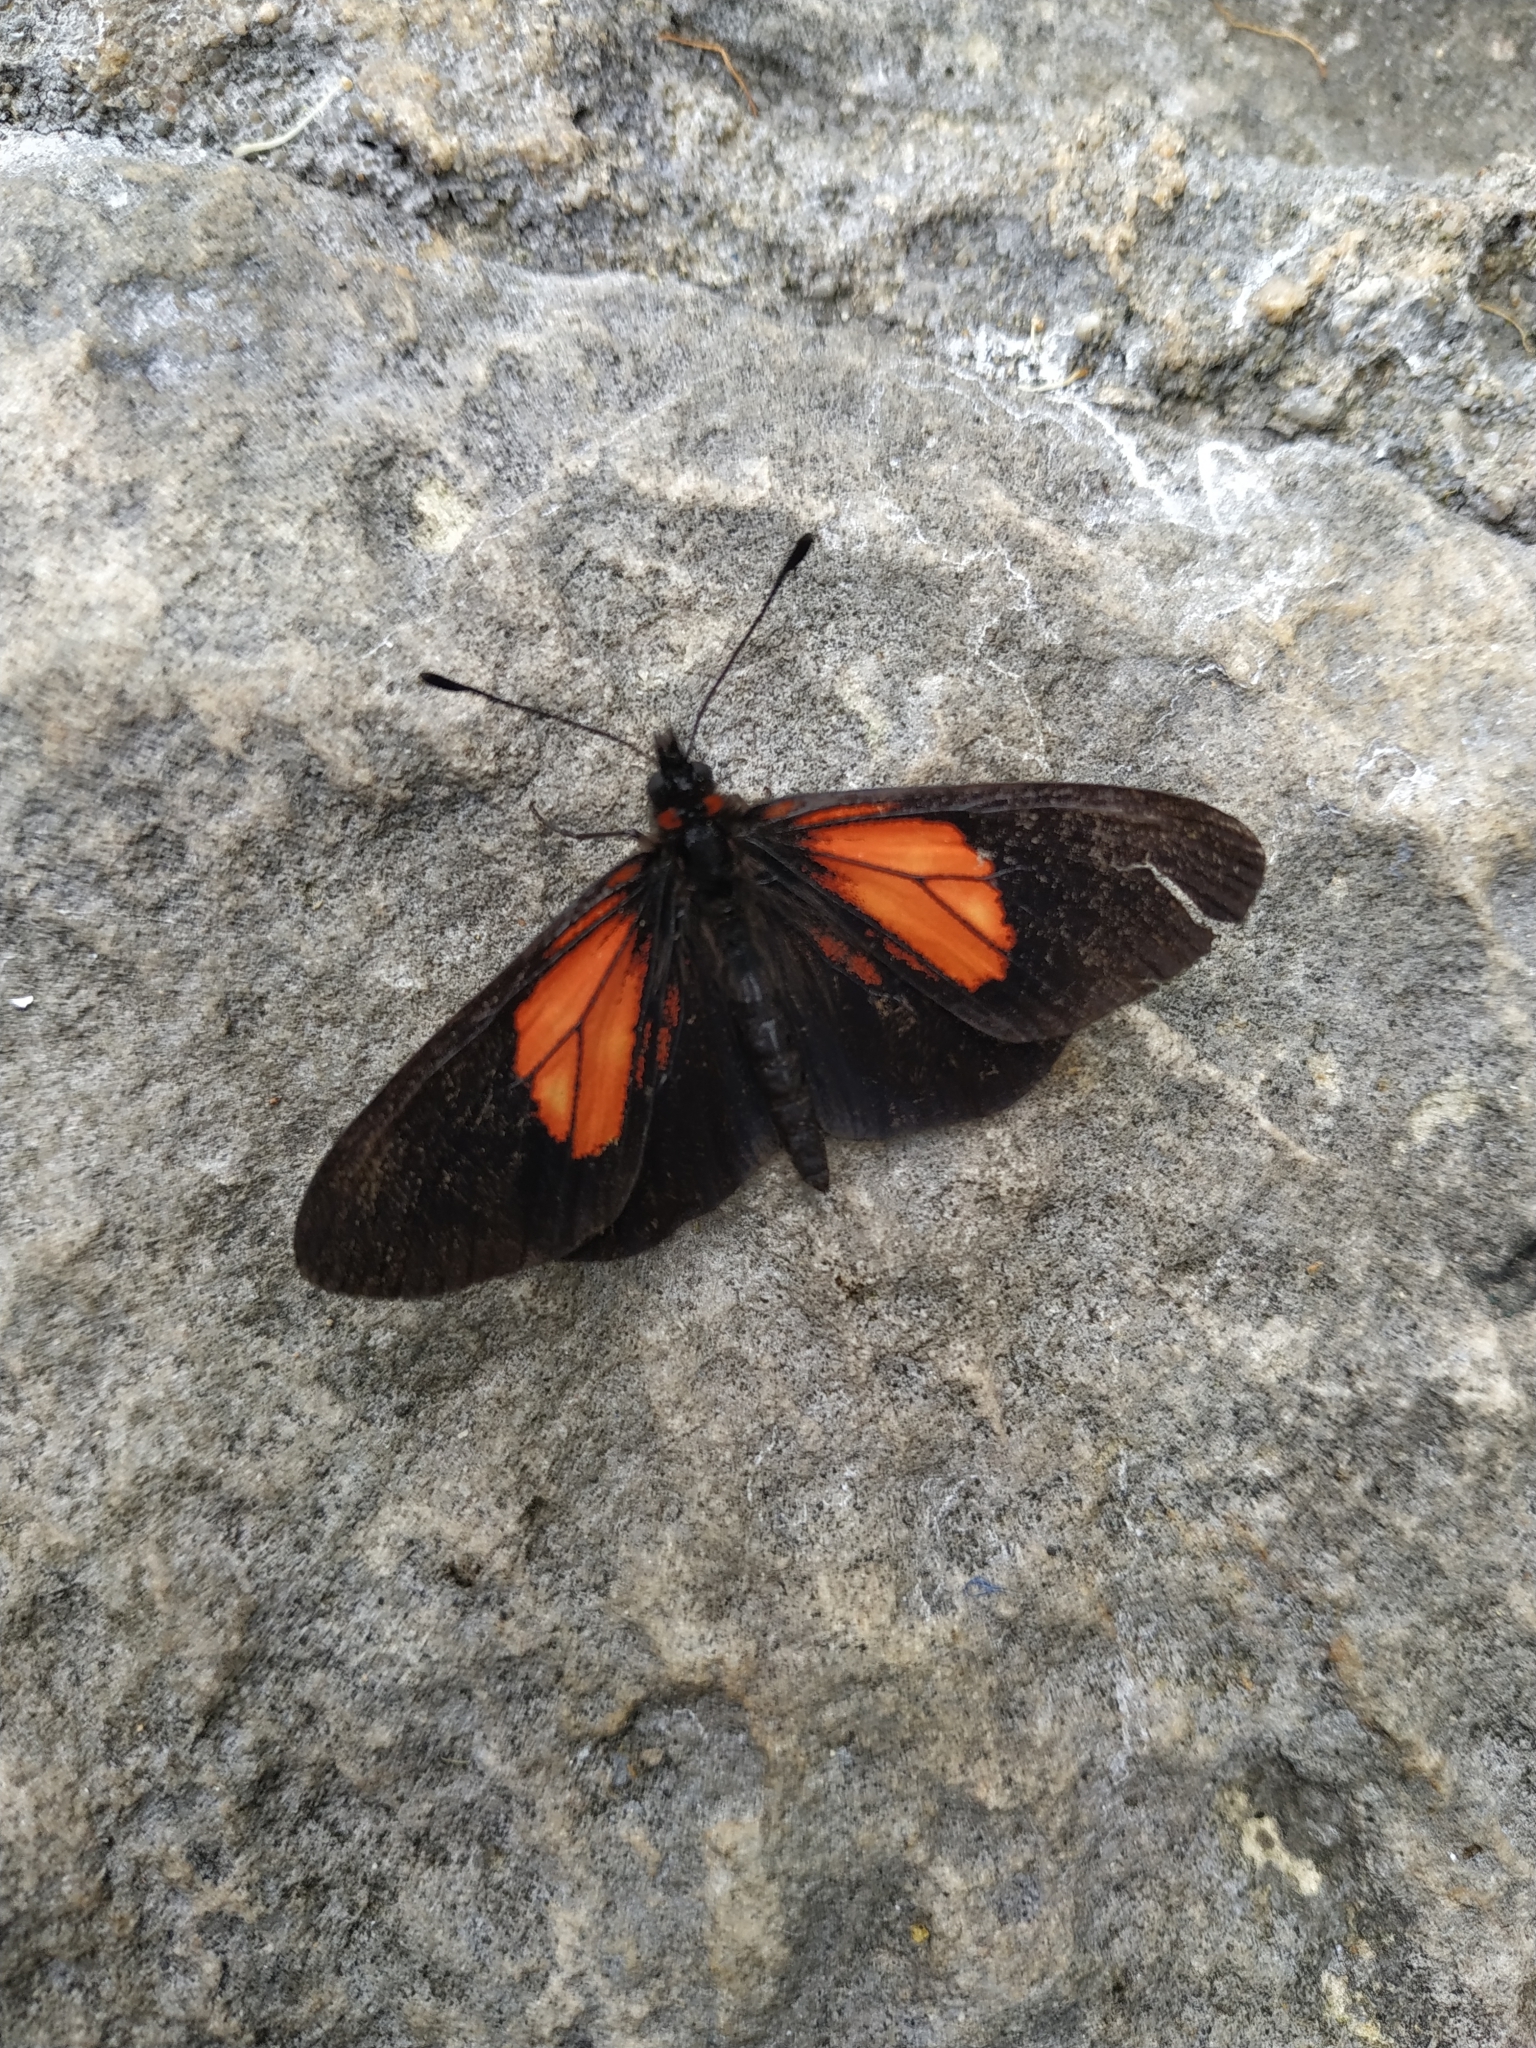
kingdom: Animalia
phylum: Arthropoda
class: Insecta
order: Lepidoptera
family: Nymphalidae
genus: Acraea
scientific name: Acraea Altinote trinacria
